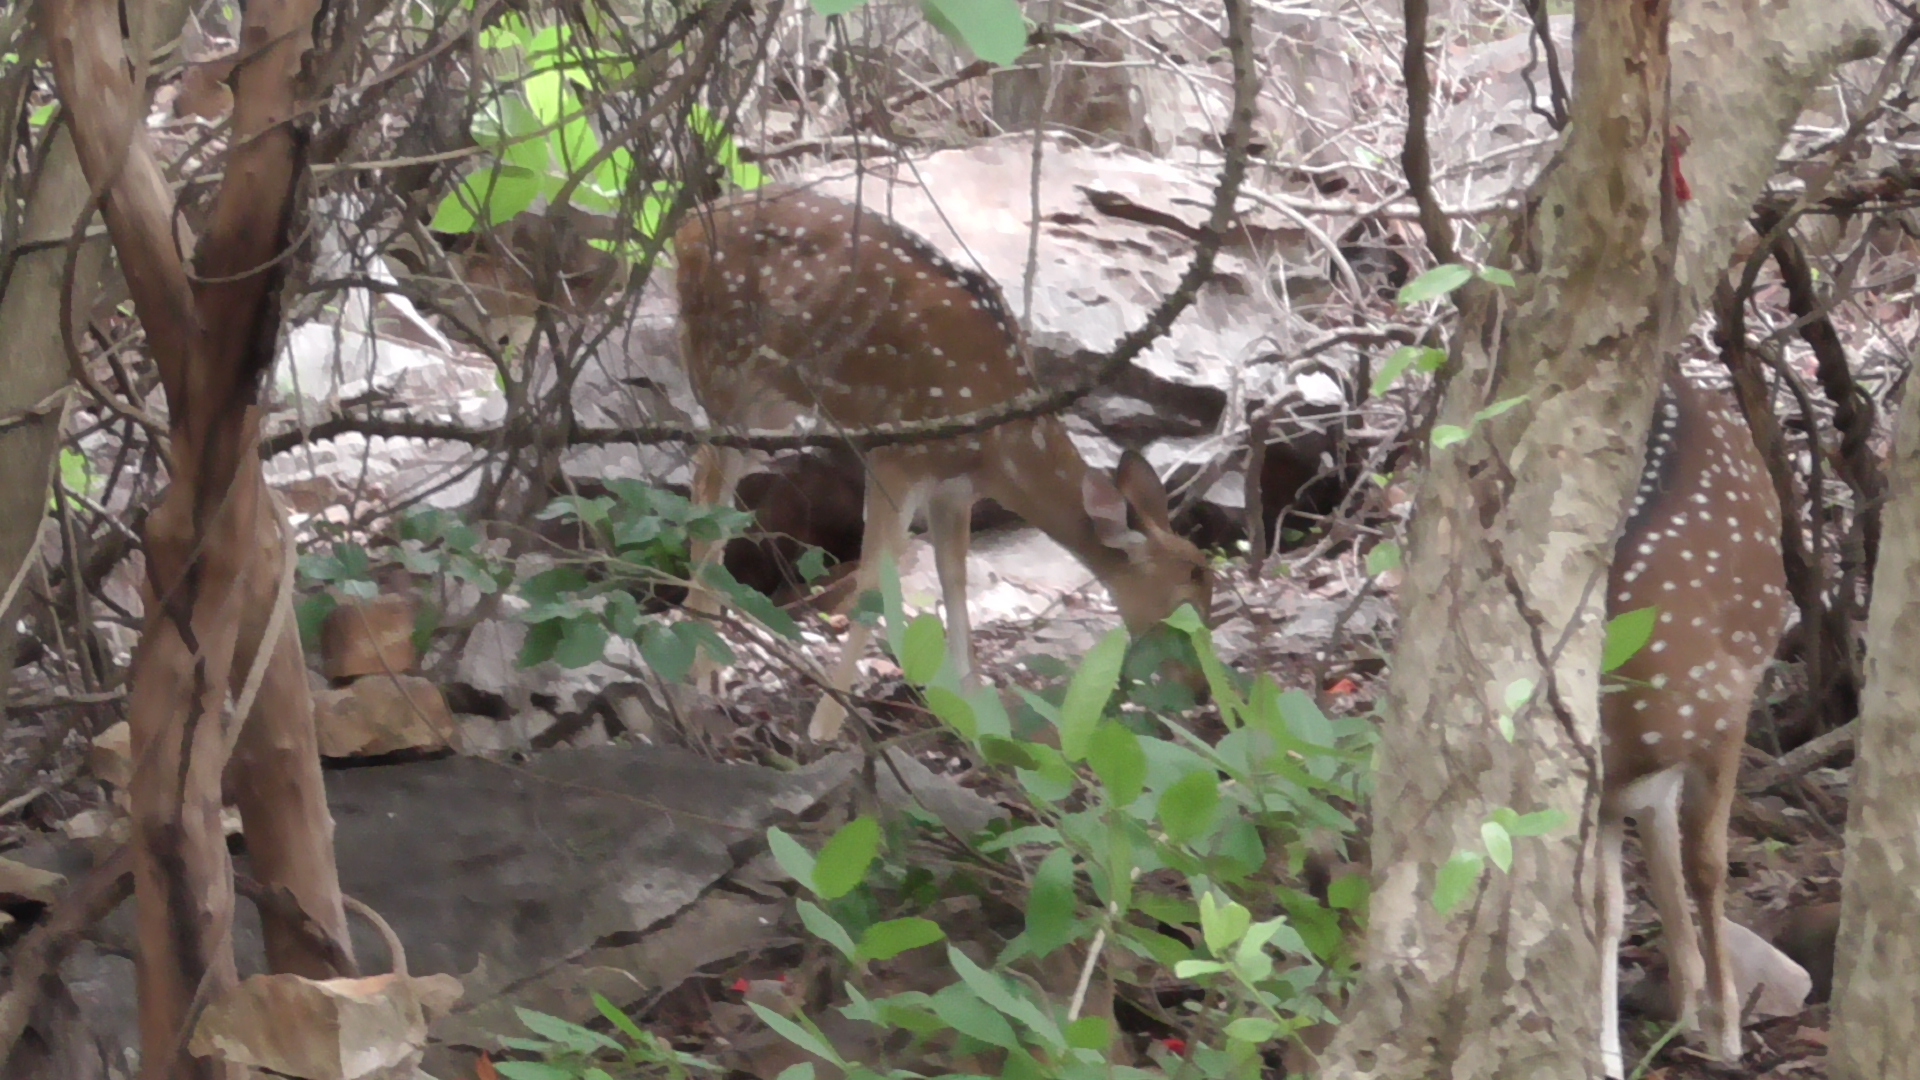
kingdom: Animalia
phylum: Chordata
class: Mammalia
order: Artiodactyla
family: Cervidae
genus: Axis
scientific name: Axis axis
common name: Chital
